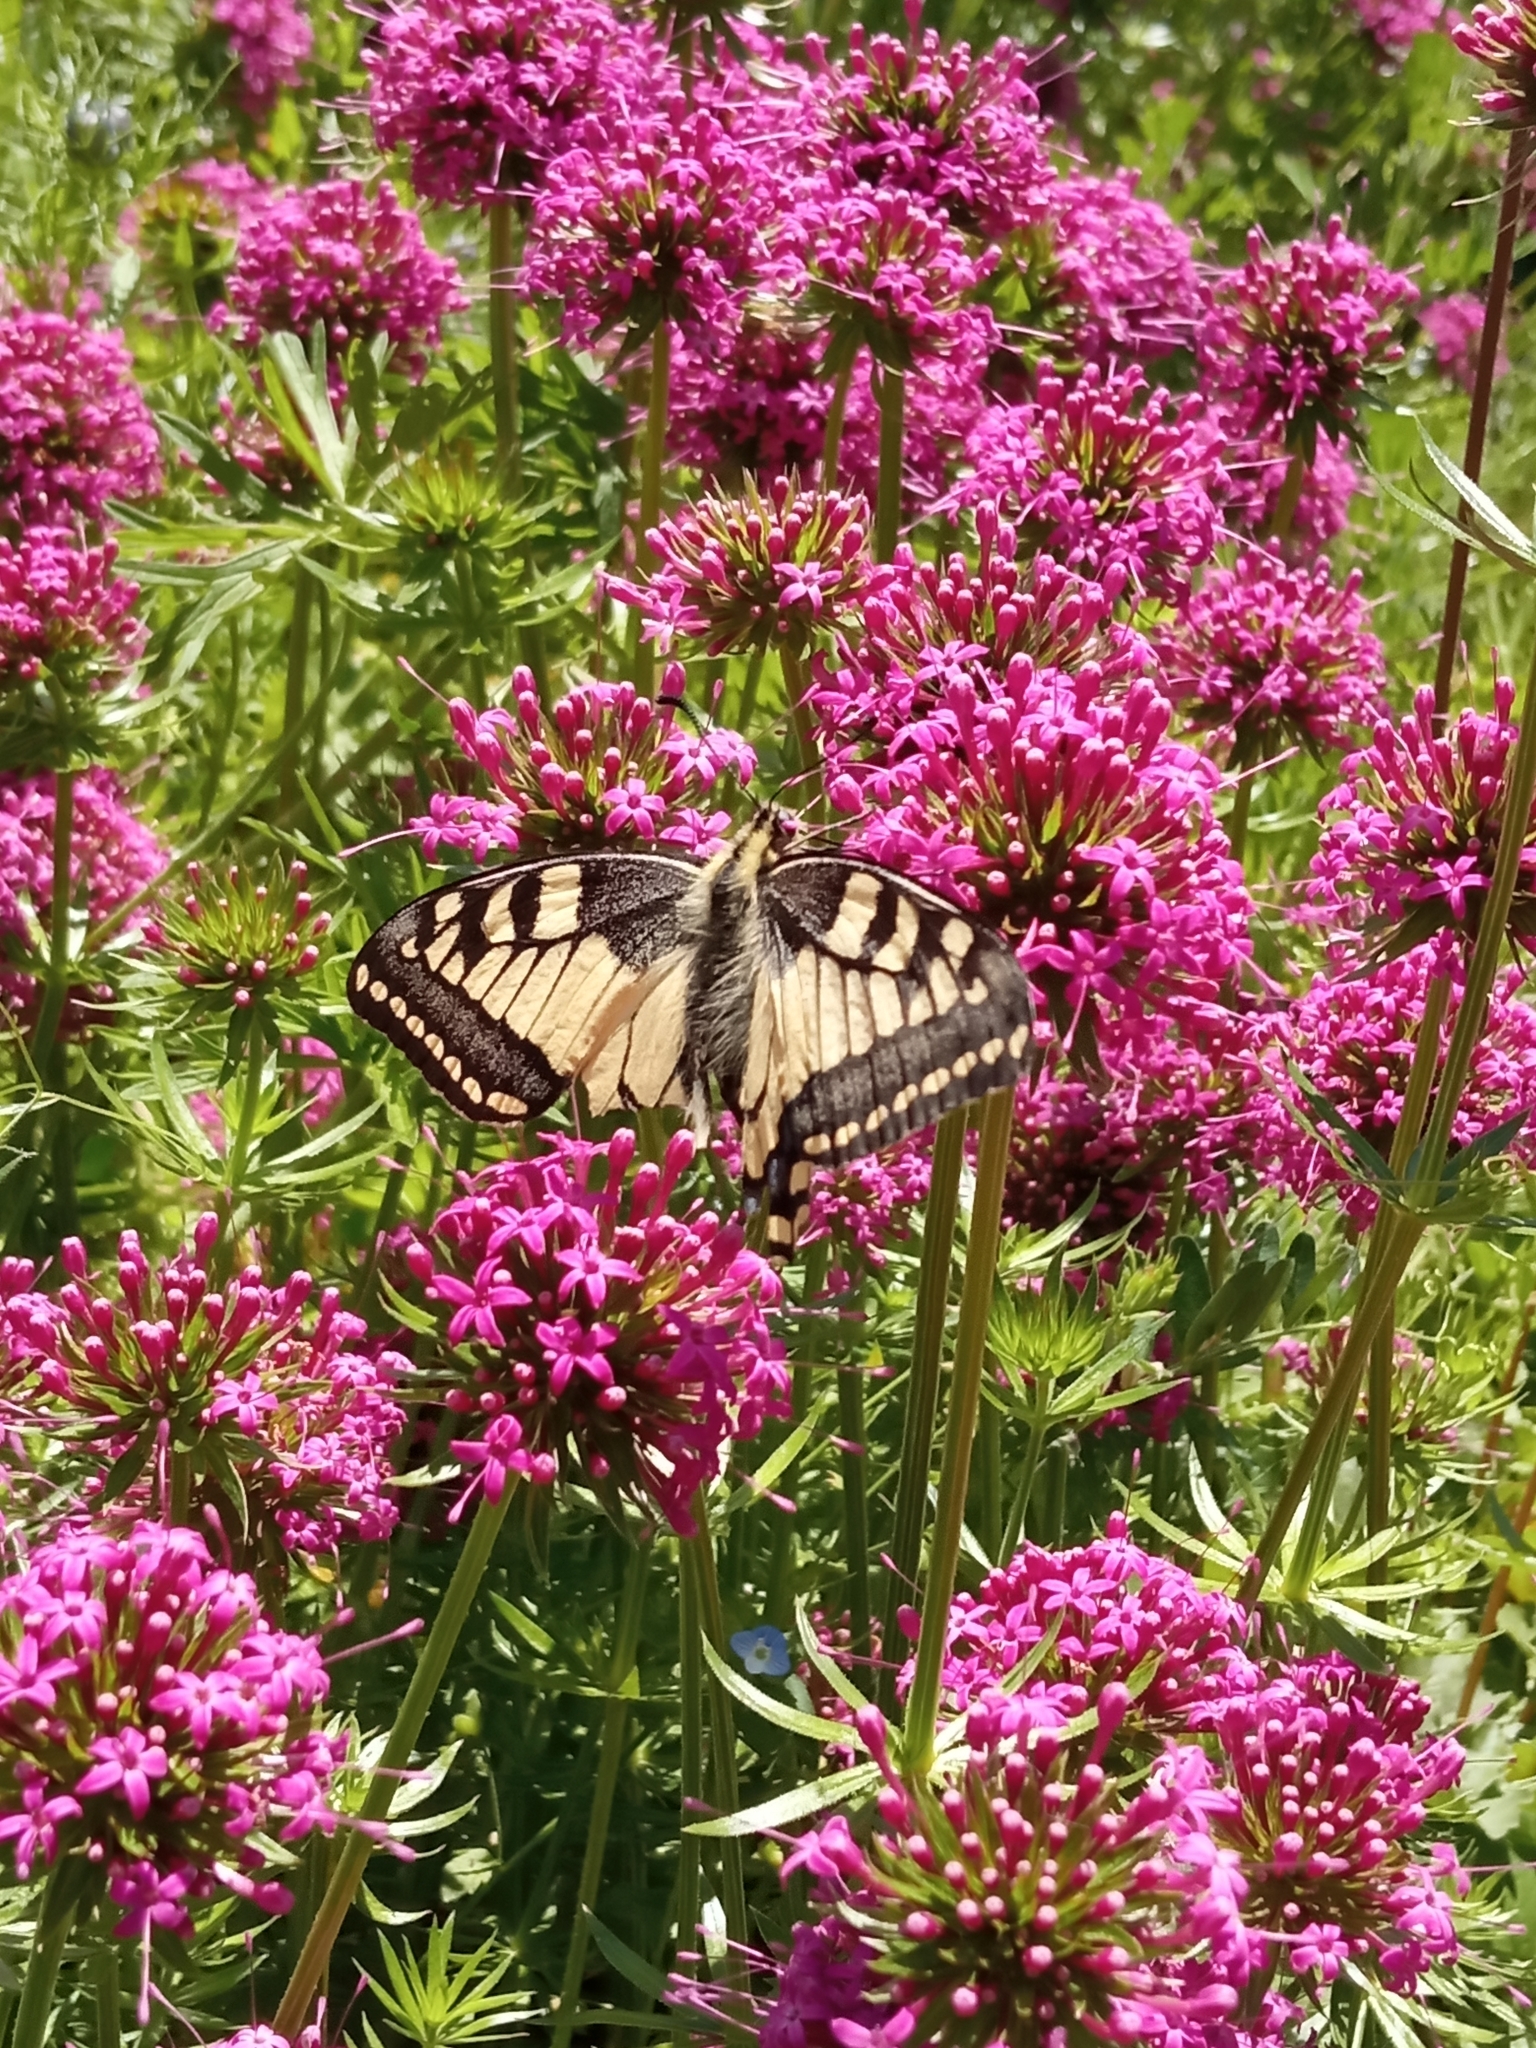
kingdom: Animalia
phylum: Arthropoda
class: Insecta
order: Lepidoptera
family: Papilionidae
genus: Papilio
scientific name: Papilio machaon
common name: Swallowtail
